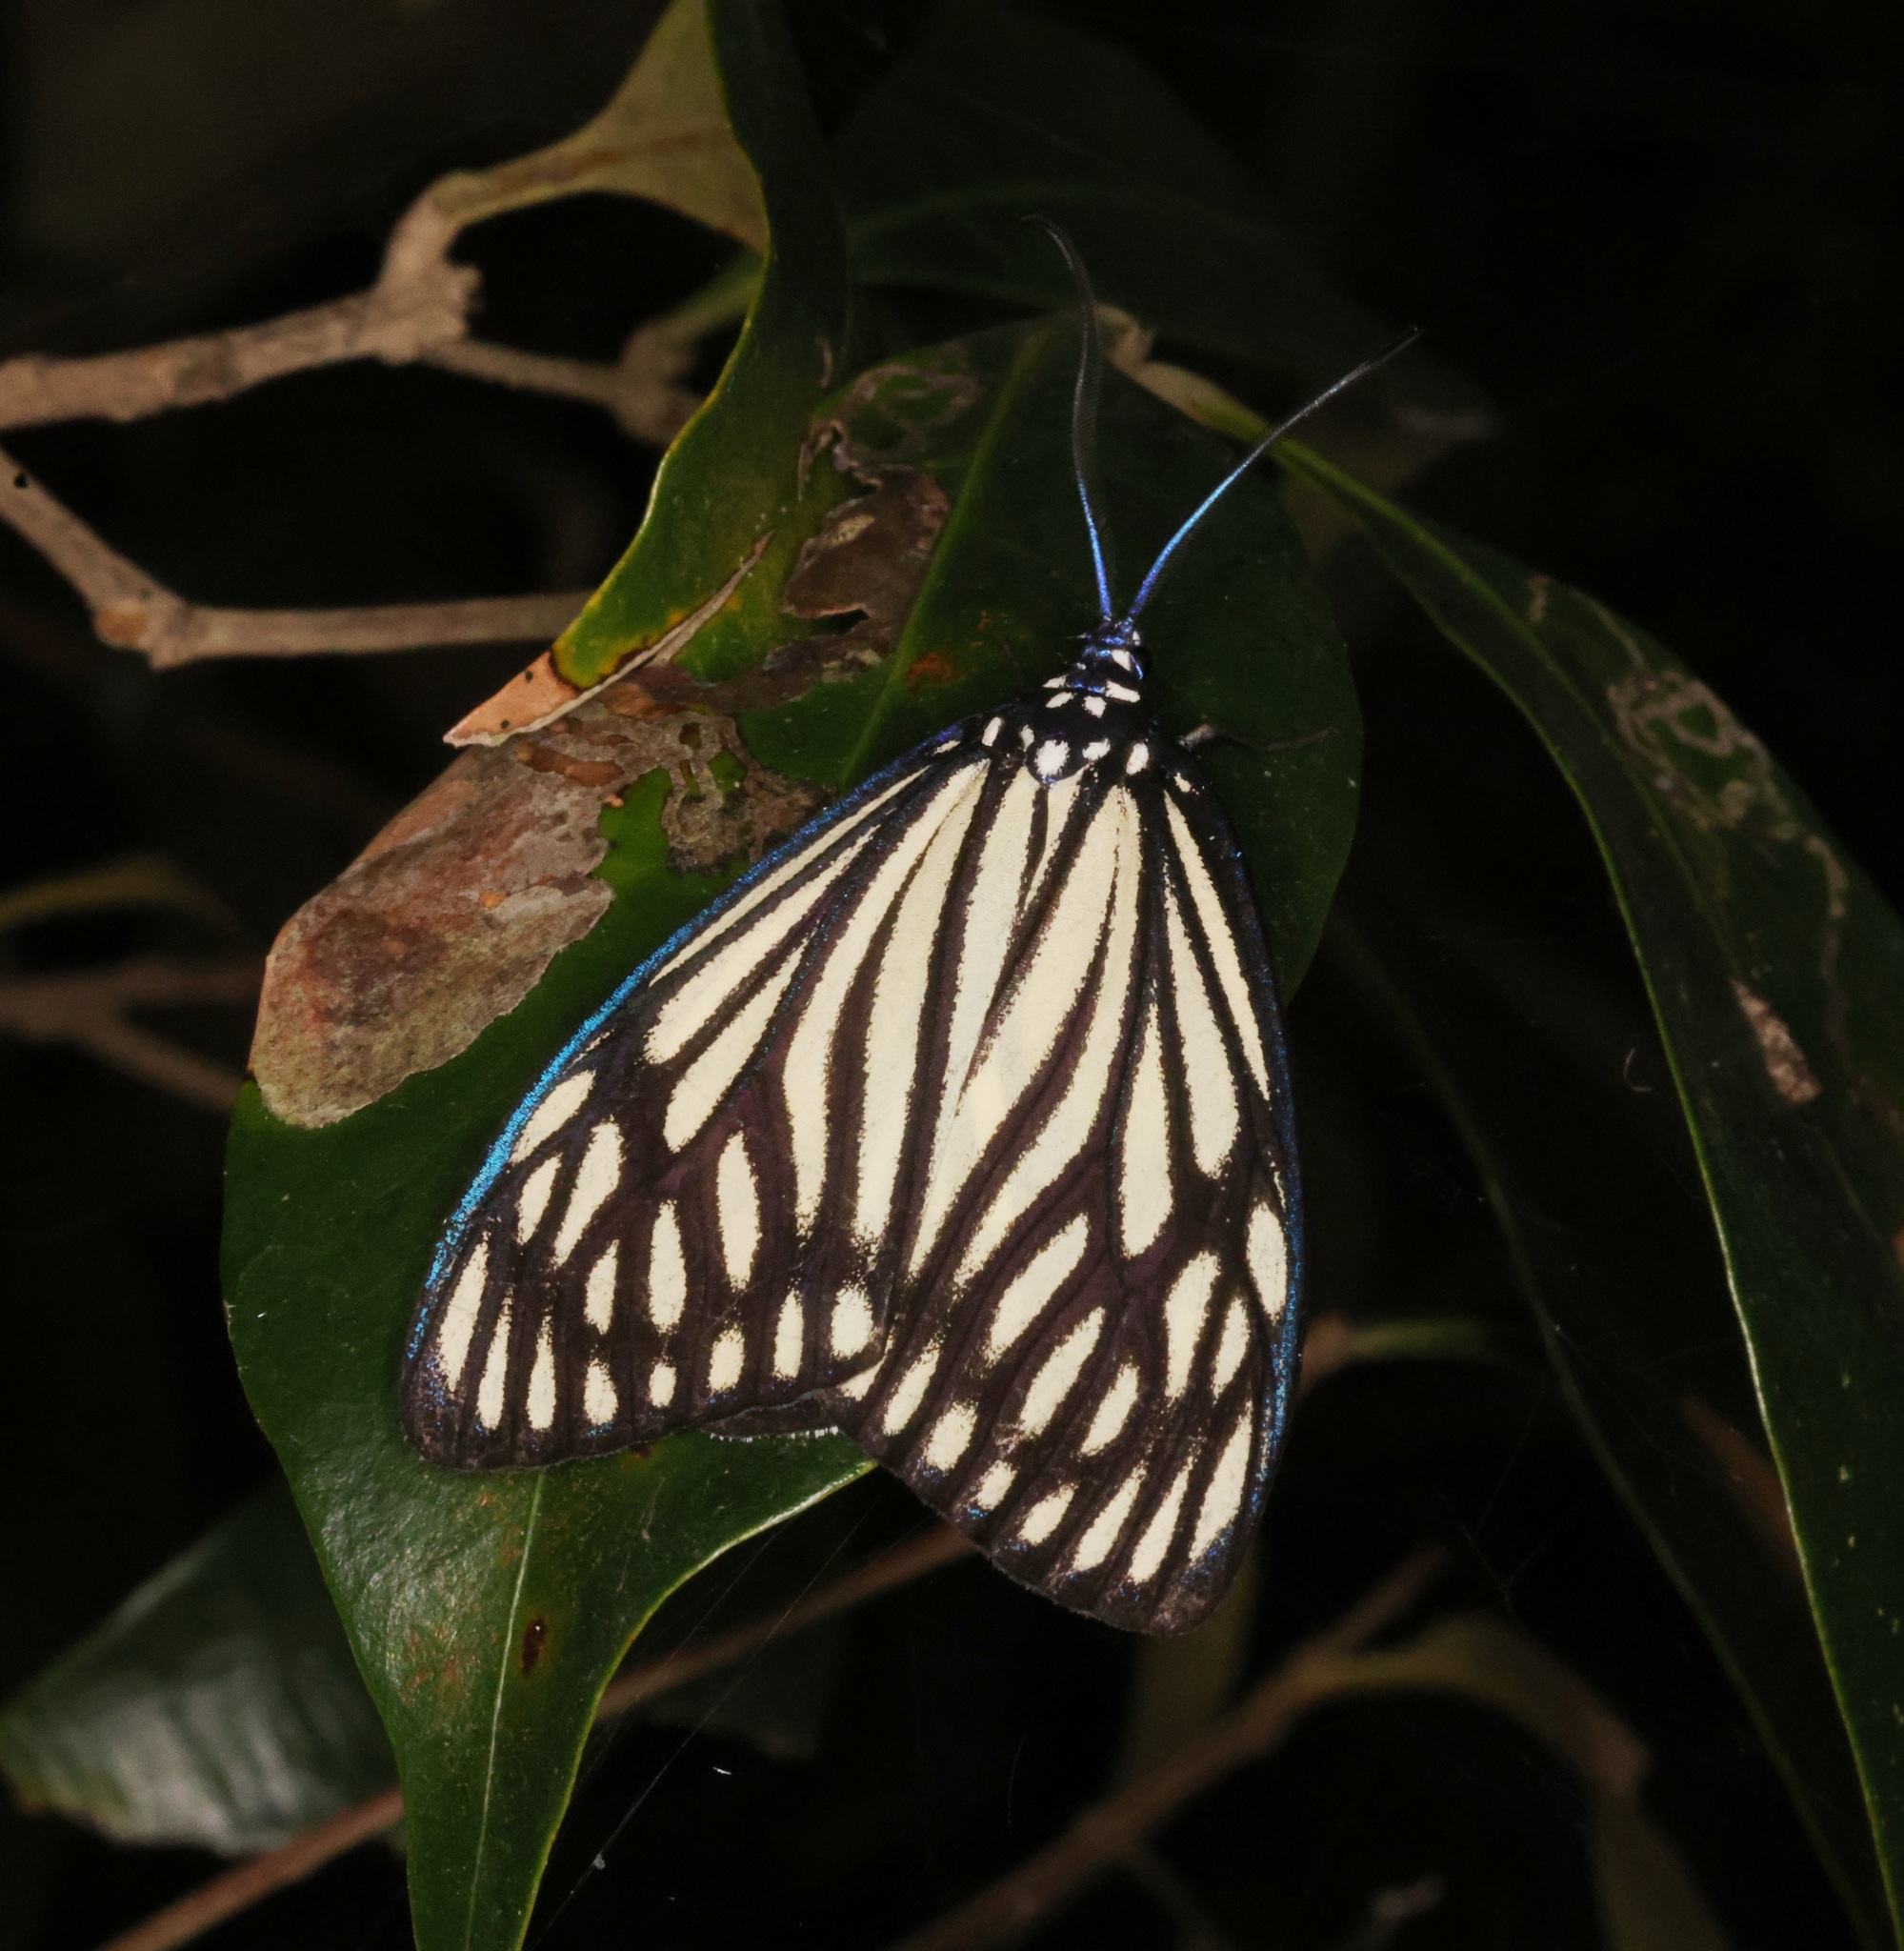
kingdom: Animalia
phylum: Arthropoda
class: Insecta
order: Lepidoptera
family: Zygaenidae
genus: Cyclosia
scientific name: Cyclosia papilionaris
